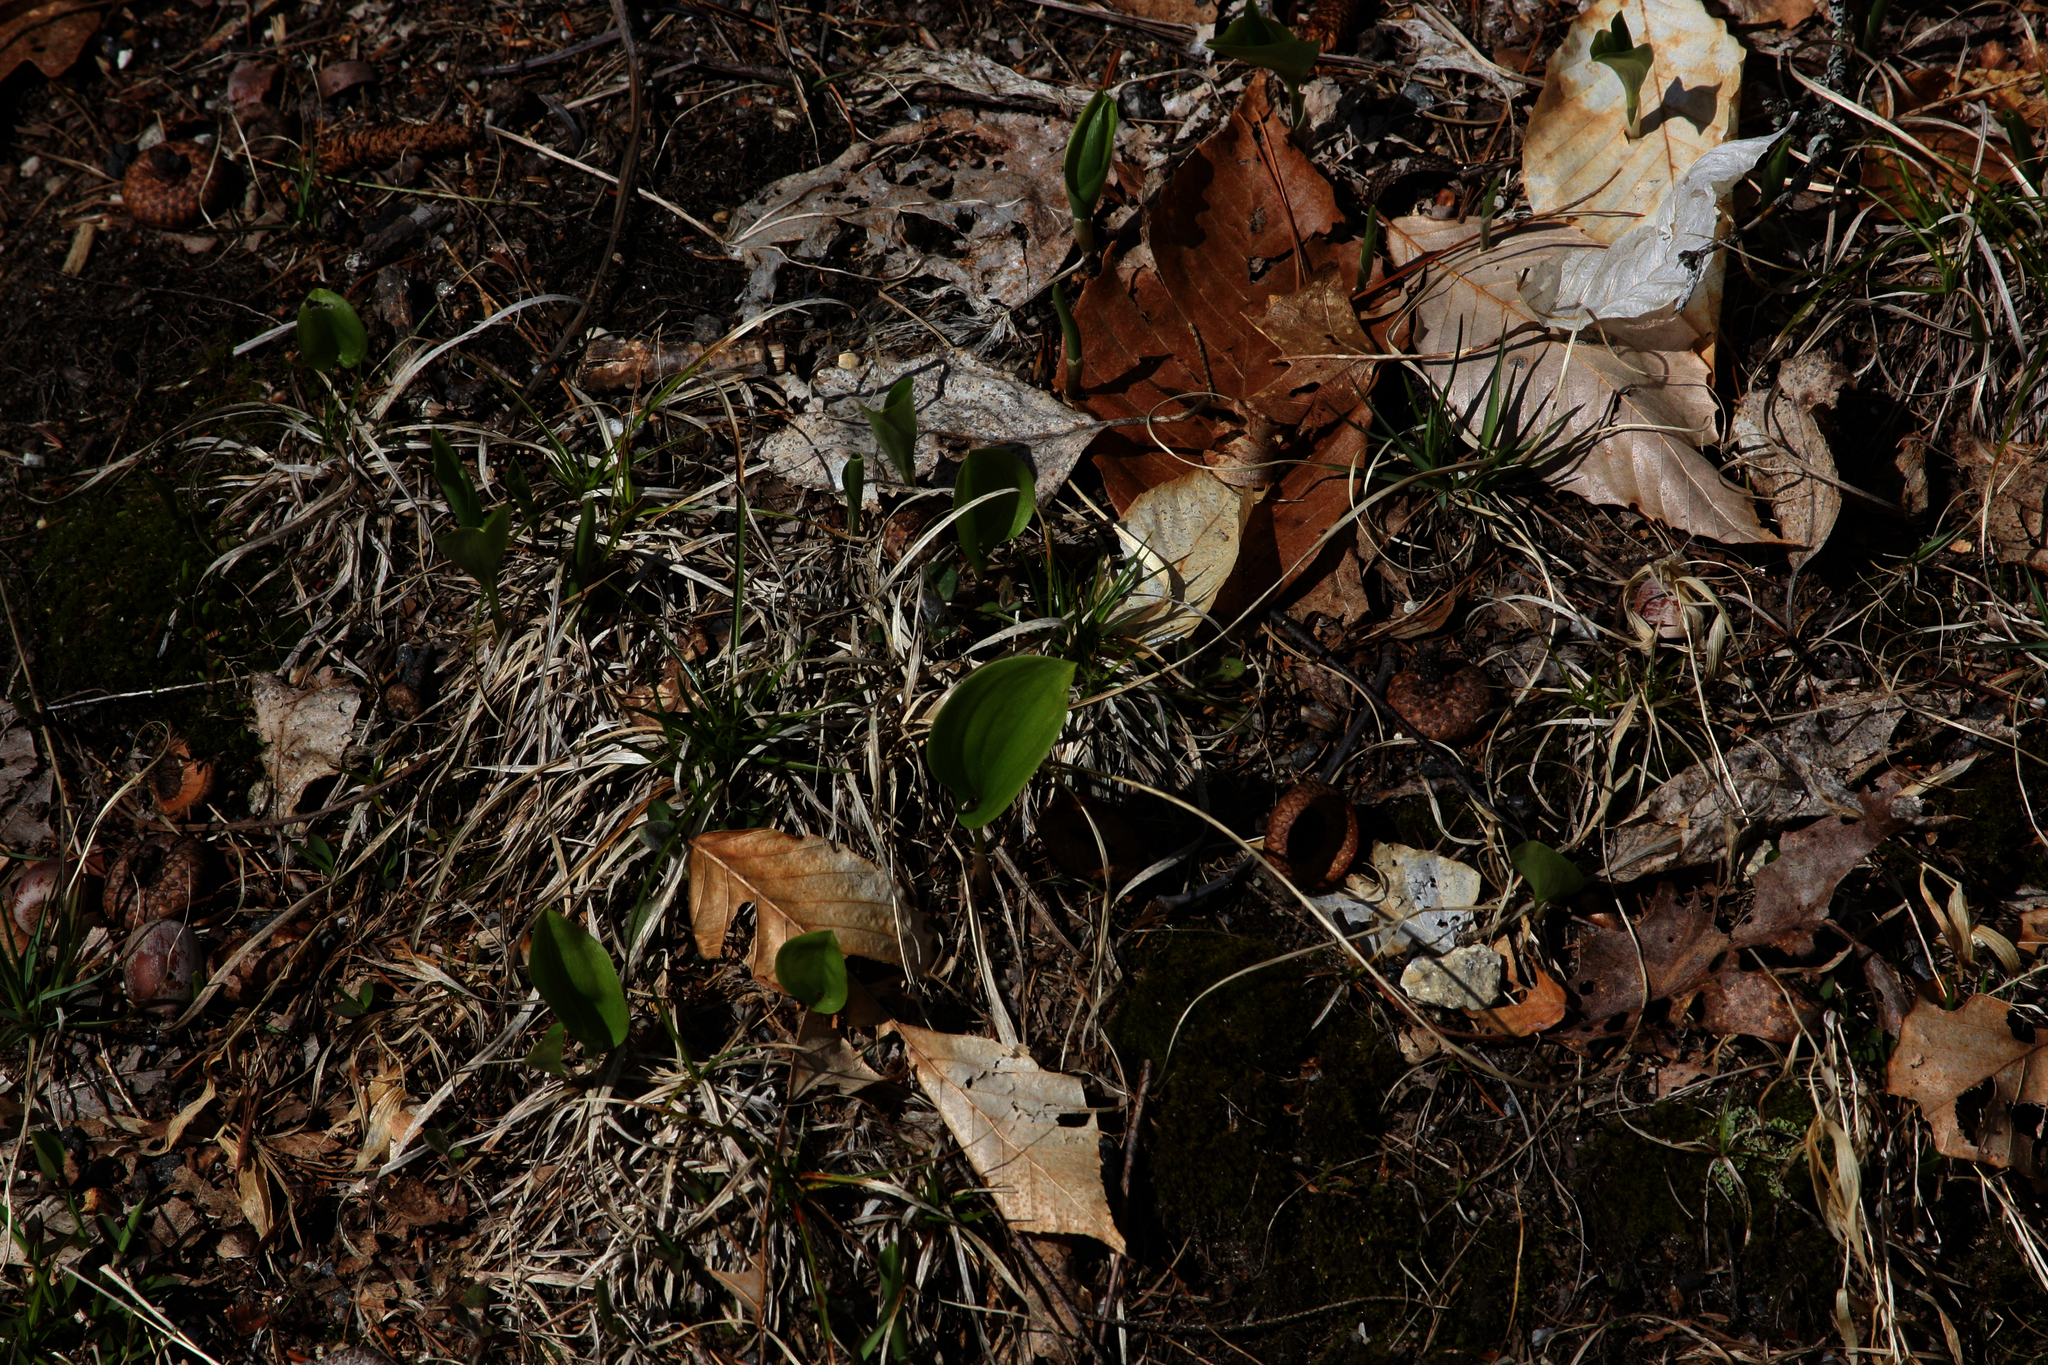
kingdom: Plantae
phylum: Tracheophyta
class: Liliopsida
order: Asparagales
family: Asparagaceae
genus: Maianthemum
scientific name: Maianthemum canadense
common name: False lily-of-the-valley
